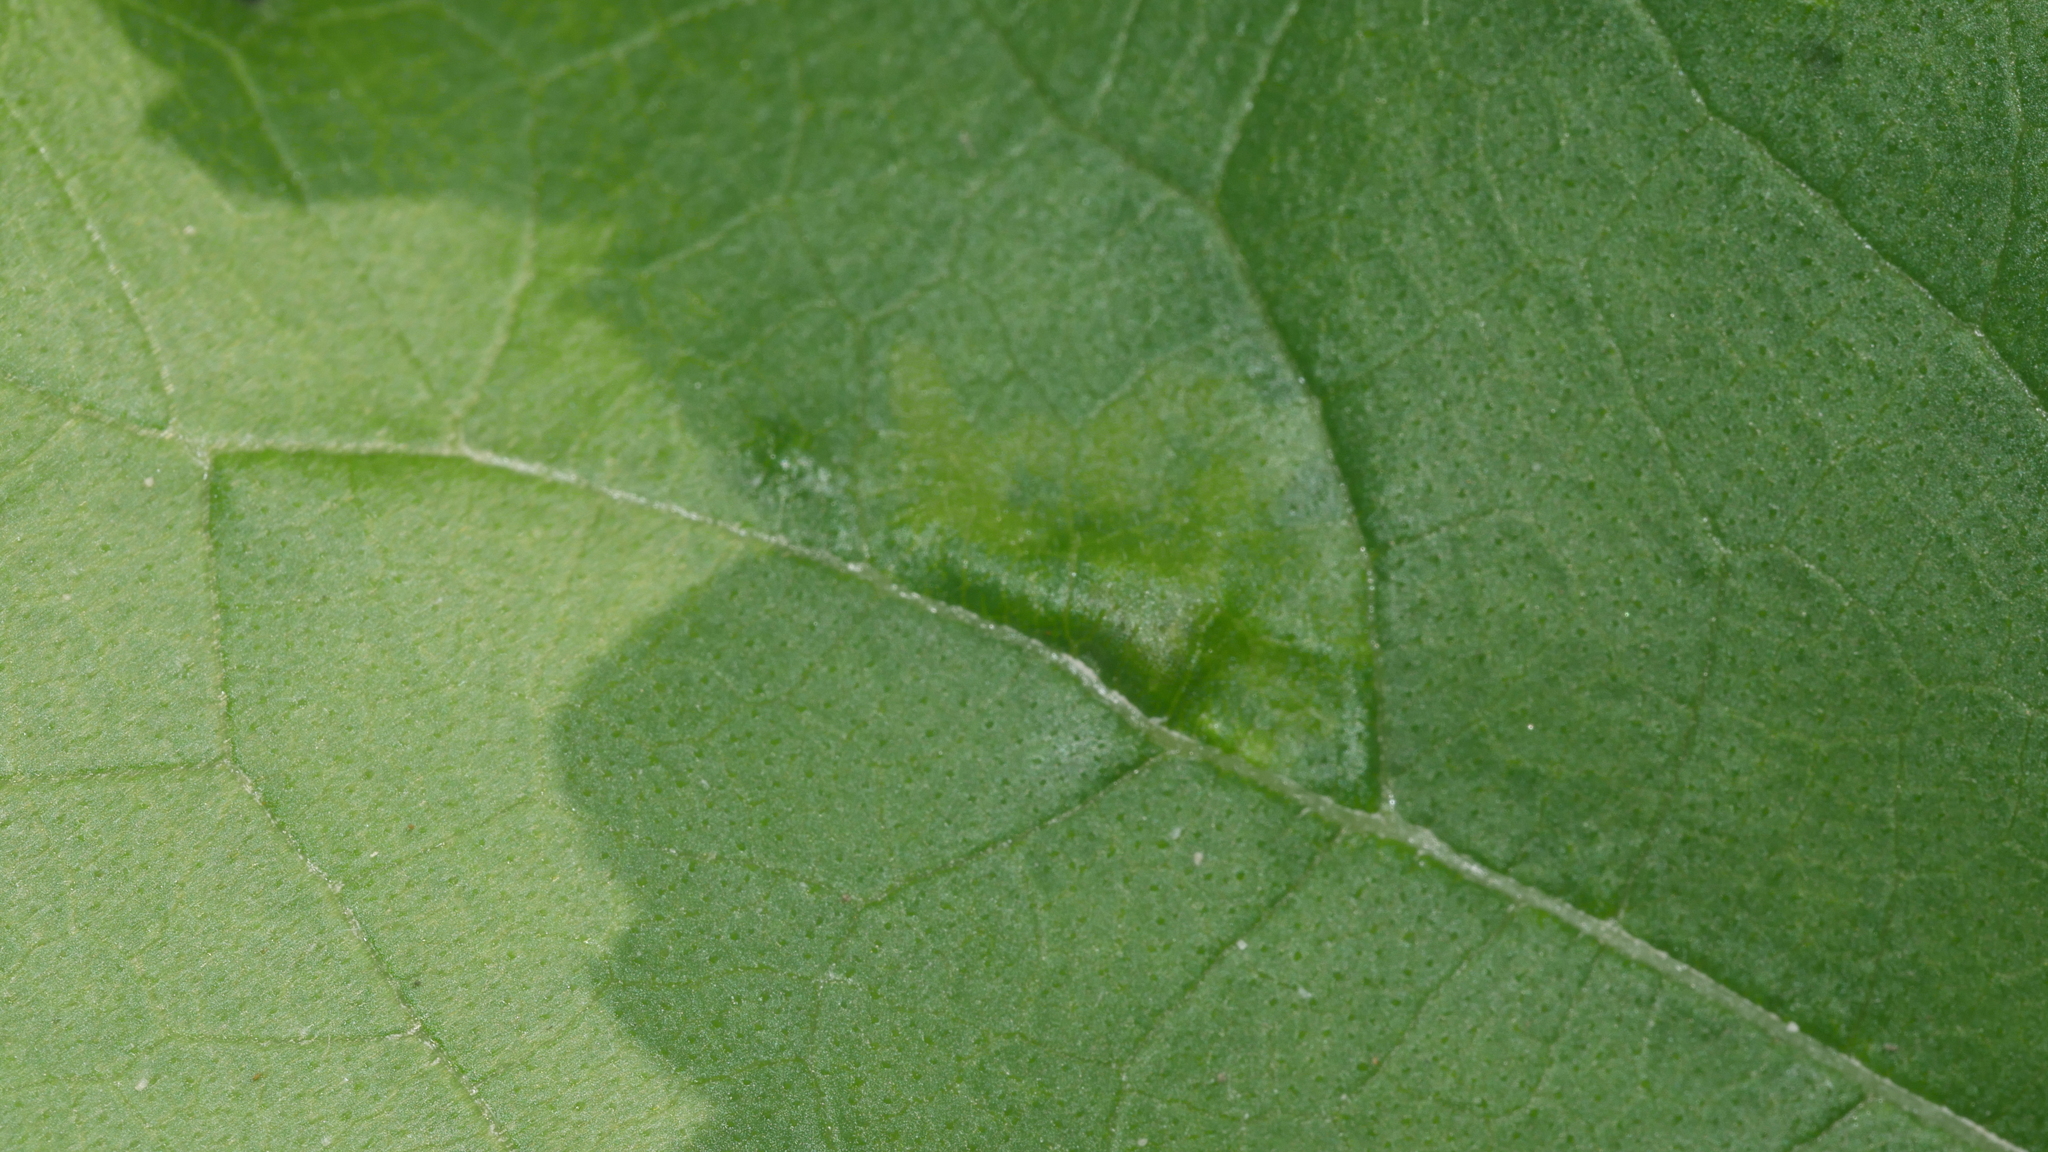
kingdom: Animalia
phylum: Arthropoda
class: Insecta
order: Diptera
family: Agromyzidae
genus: Calycomyza
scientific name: Calycomyza platyptera
